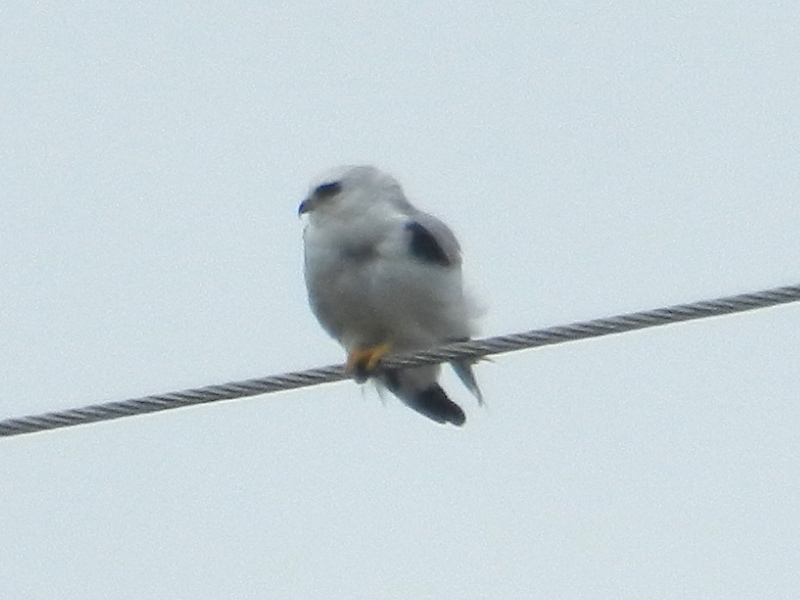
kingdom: Animalia
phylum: Chordata
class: Aves
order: Accipitriformes
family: Accipitridae
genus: Elanus
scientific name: Elanus leucurus
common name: White-tailed kite
